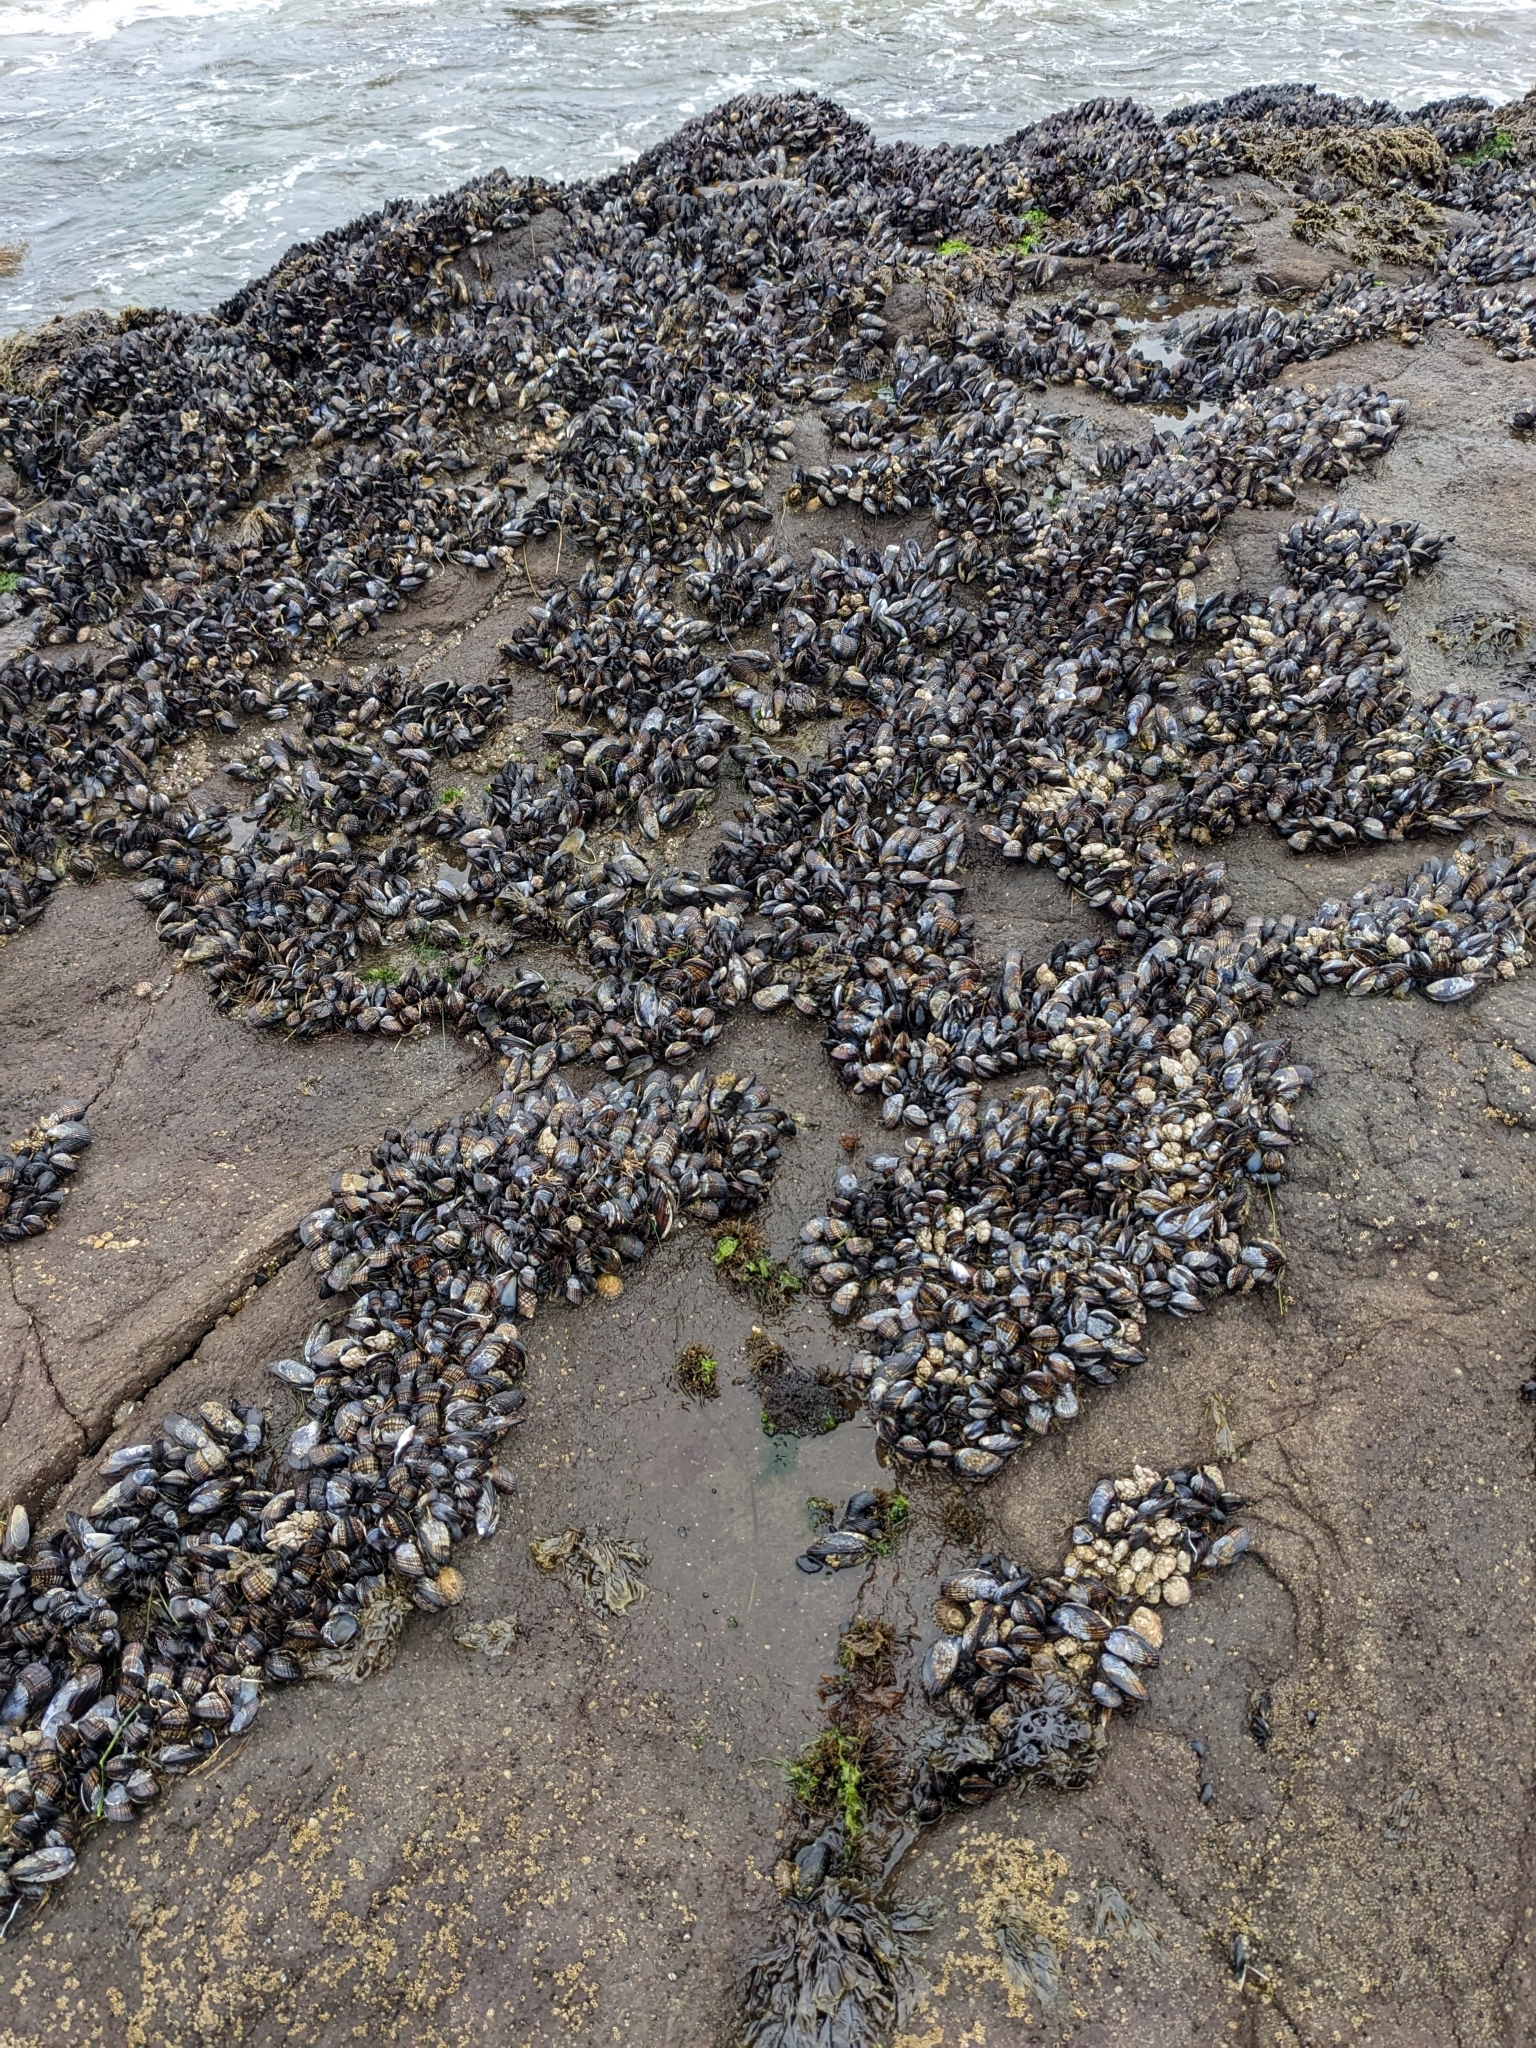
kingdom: Animalia
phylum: Mollusca
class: Bivalvia
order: Mytilida
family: Mytilidae
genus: Mytilus
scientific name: Mytilus californianus
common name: California mussel
